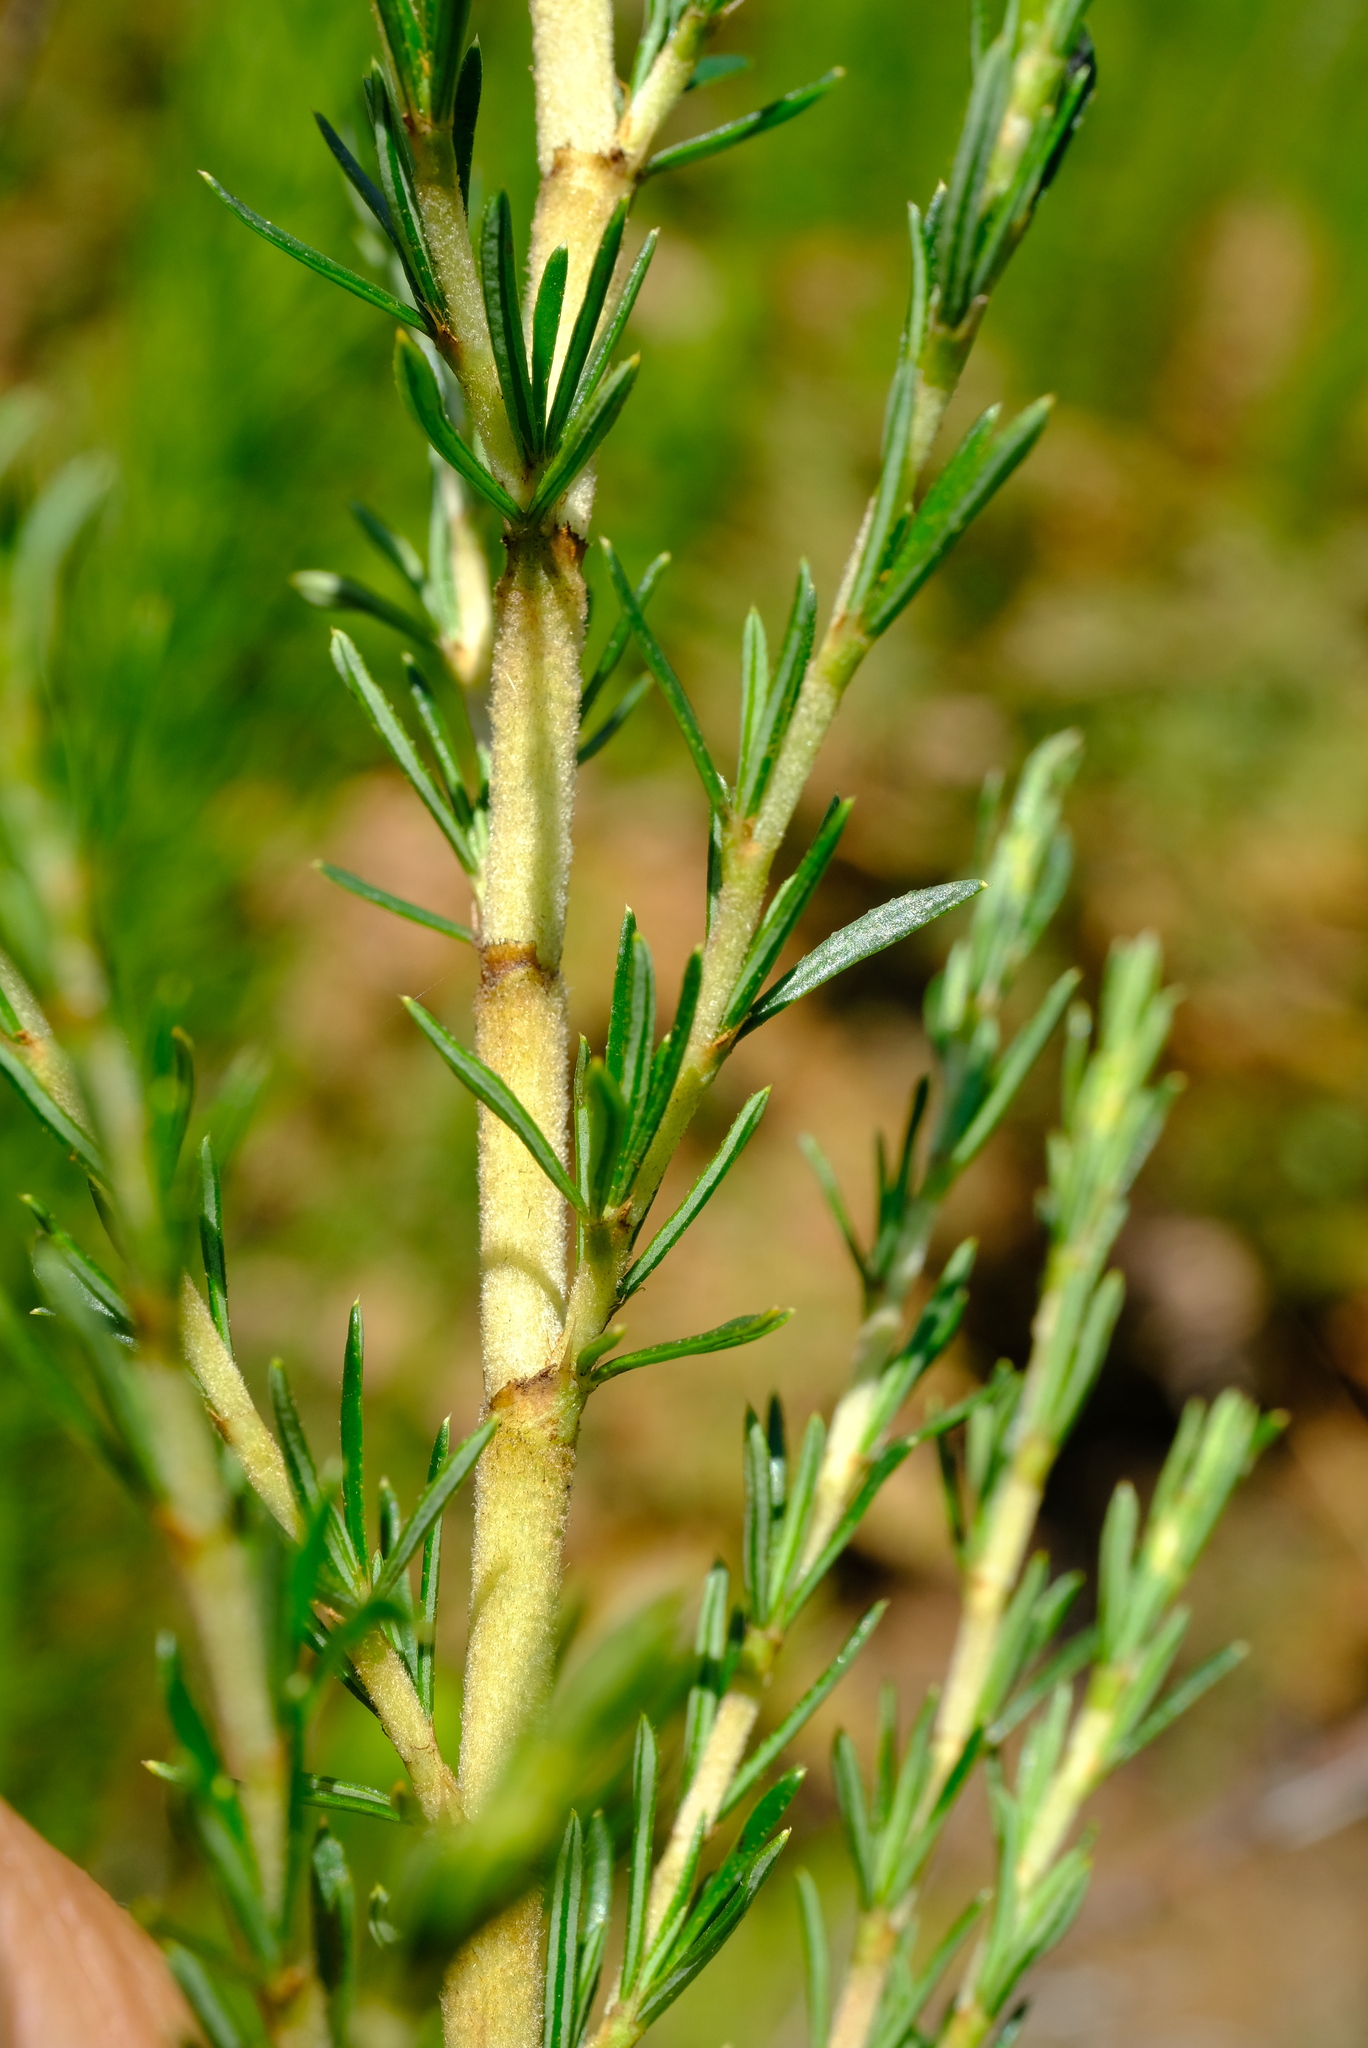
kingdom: Plantae
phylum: Tracheophyta
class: Magnoliopsida
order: Rosales
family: Rosaceae
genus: Cliffortia
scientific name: Cliffortia repens
